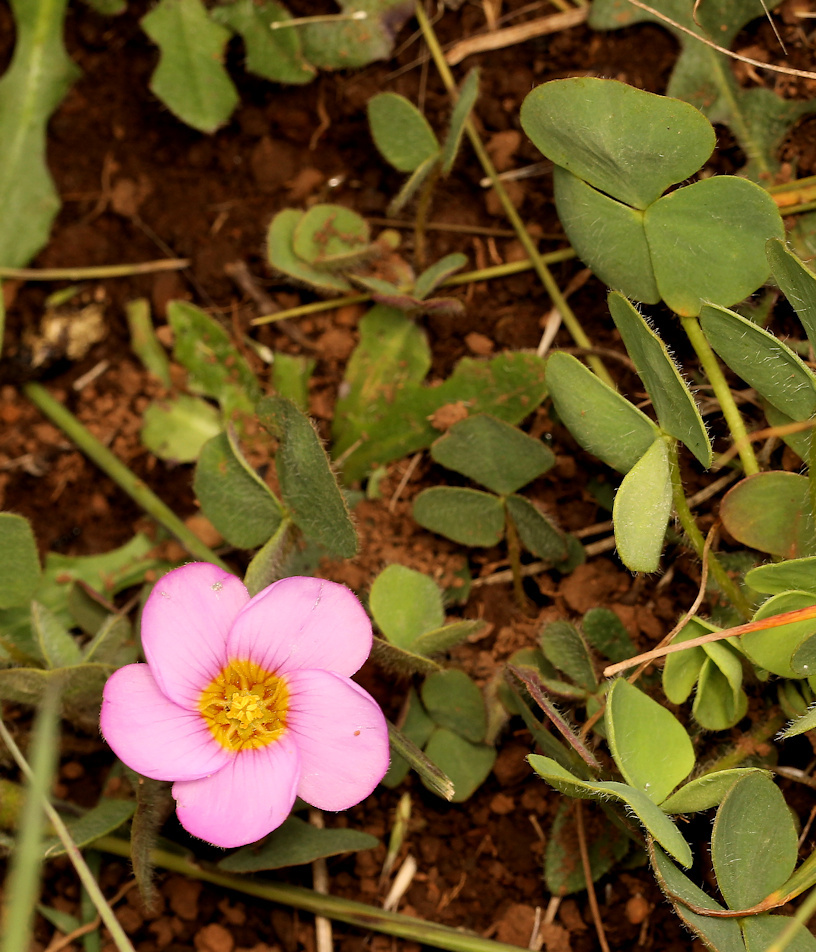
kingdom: Plantae
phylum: Tracheophyta
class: Magnoliopsida
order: Oxalidales
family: Oxalidaceae
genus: Oxalis
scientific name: Oxalis obliquifolia
